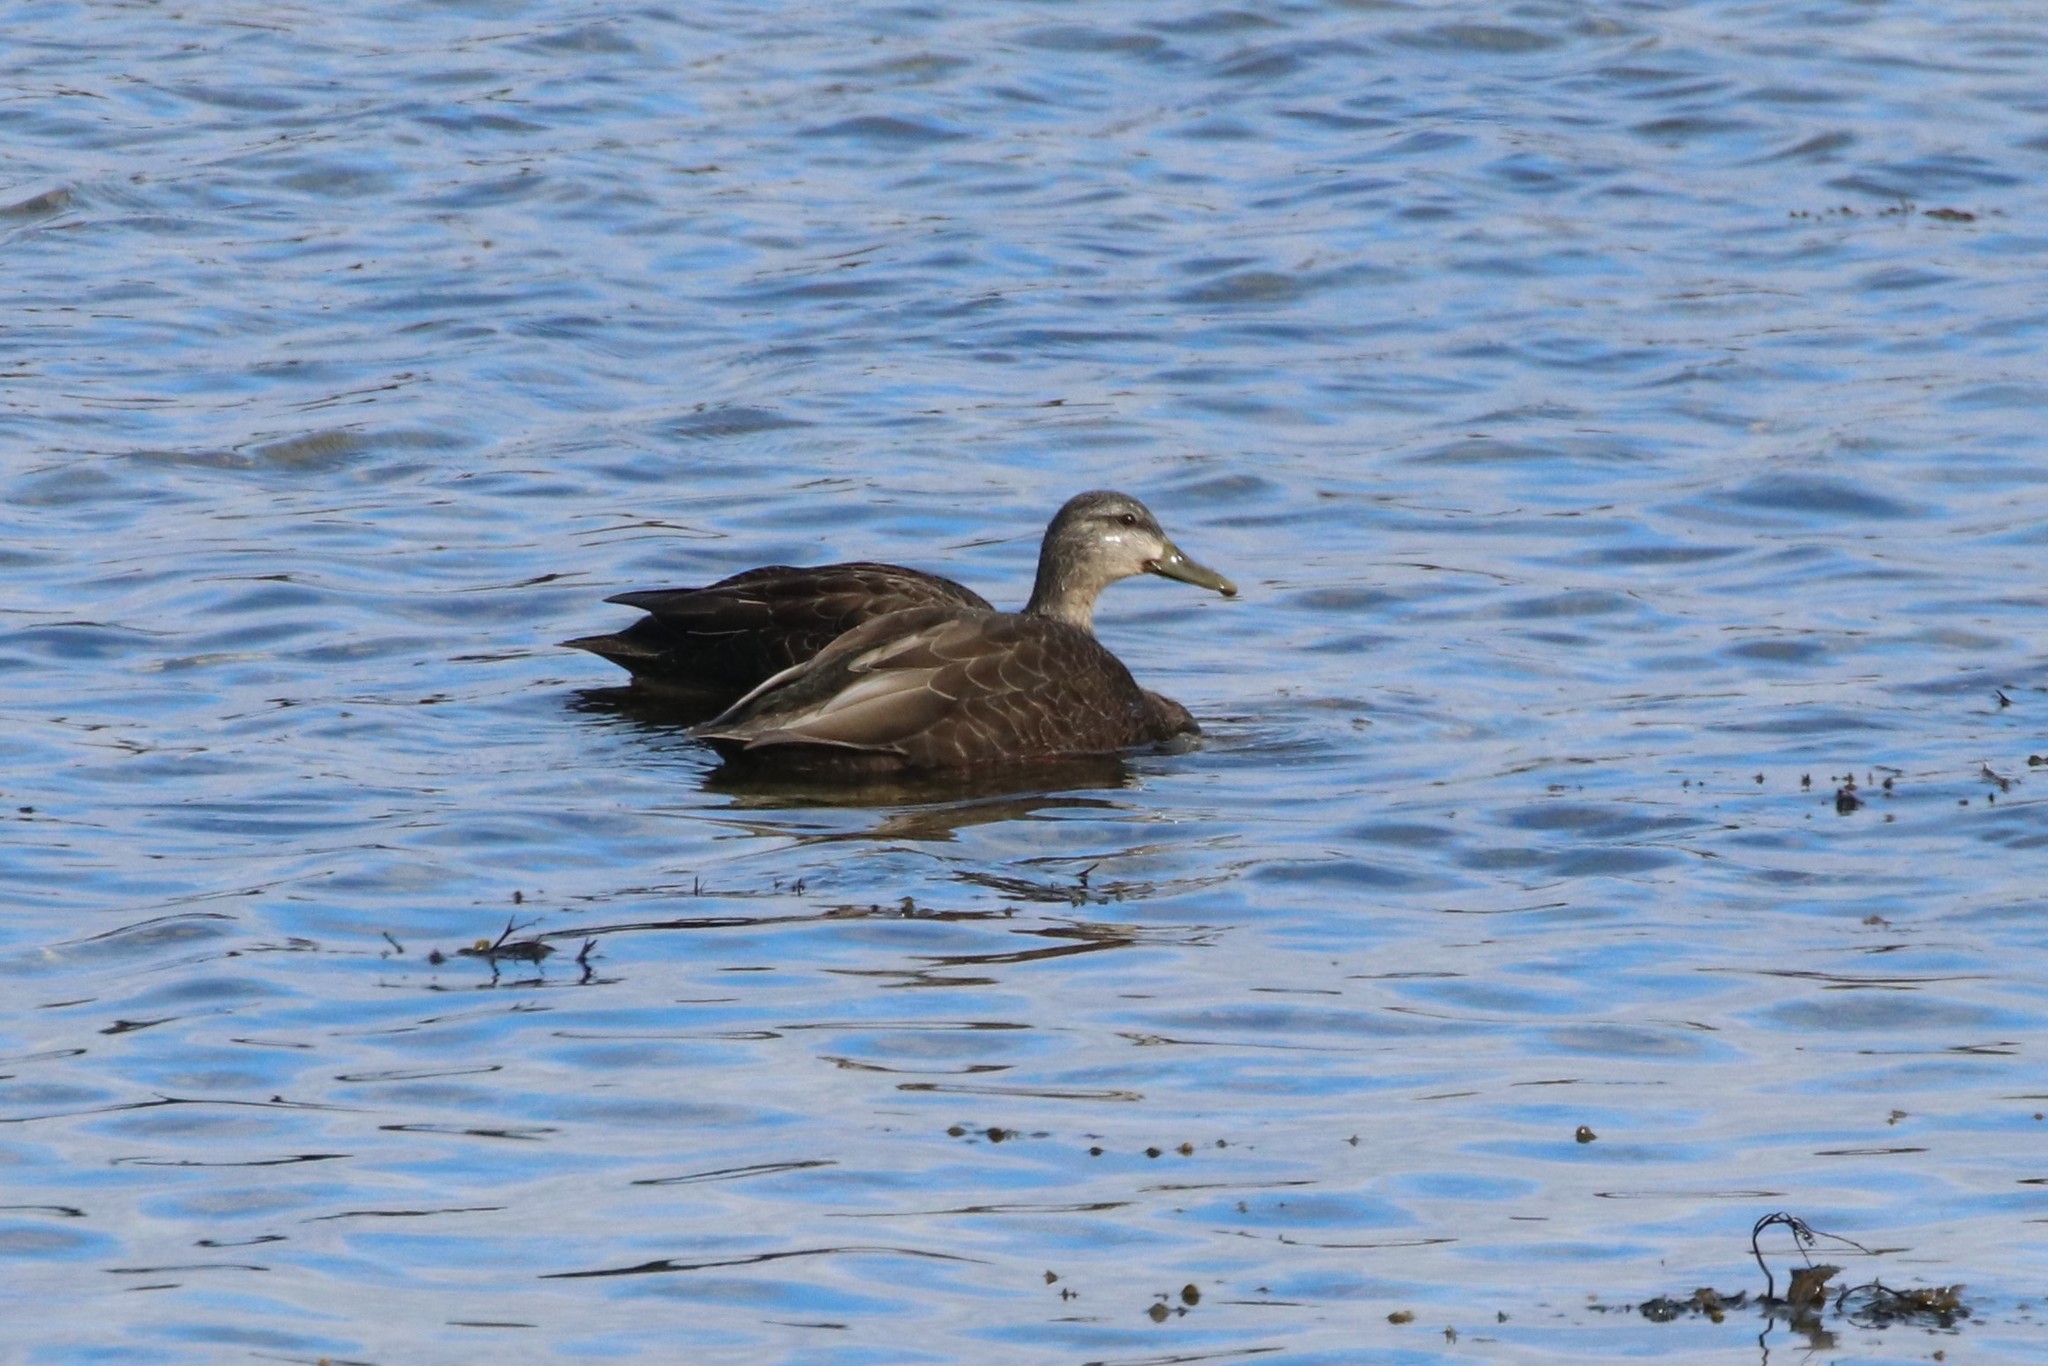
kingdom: Animalia
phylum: Chordata
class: Aves
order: Anseriformes
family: Anatidae
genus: Anas
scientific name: Anas rubripes
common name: American black duck
